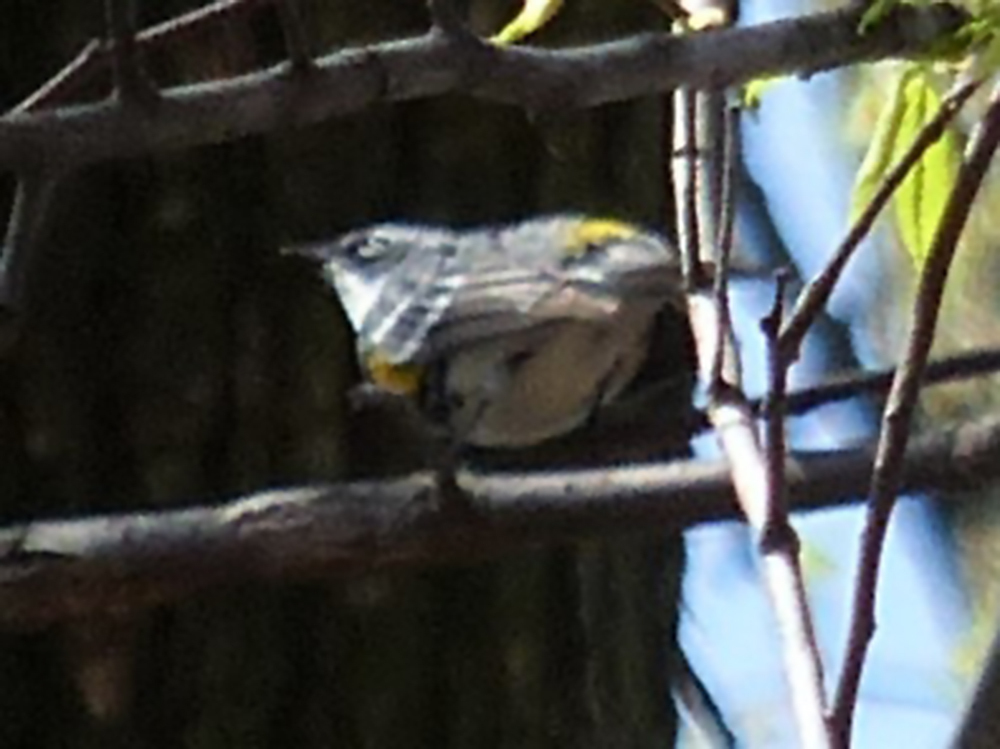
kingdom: Animalia
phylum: Chordata
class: Aves
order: Passeriformes
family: Parulidae
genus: Setophaga
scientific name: Setophaga coronata
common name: Myrtle warbler
